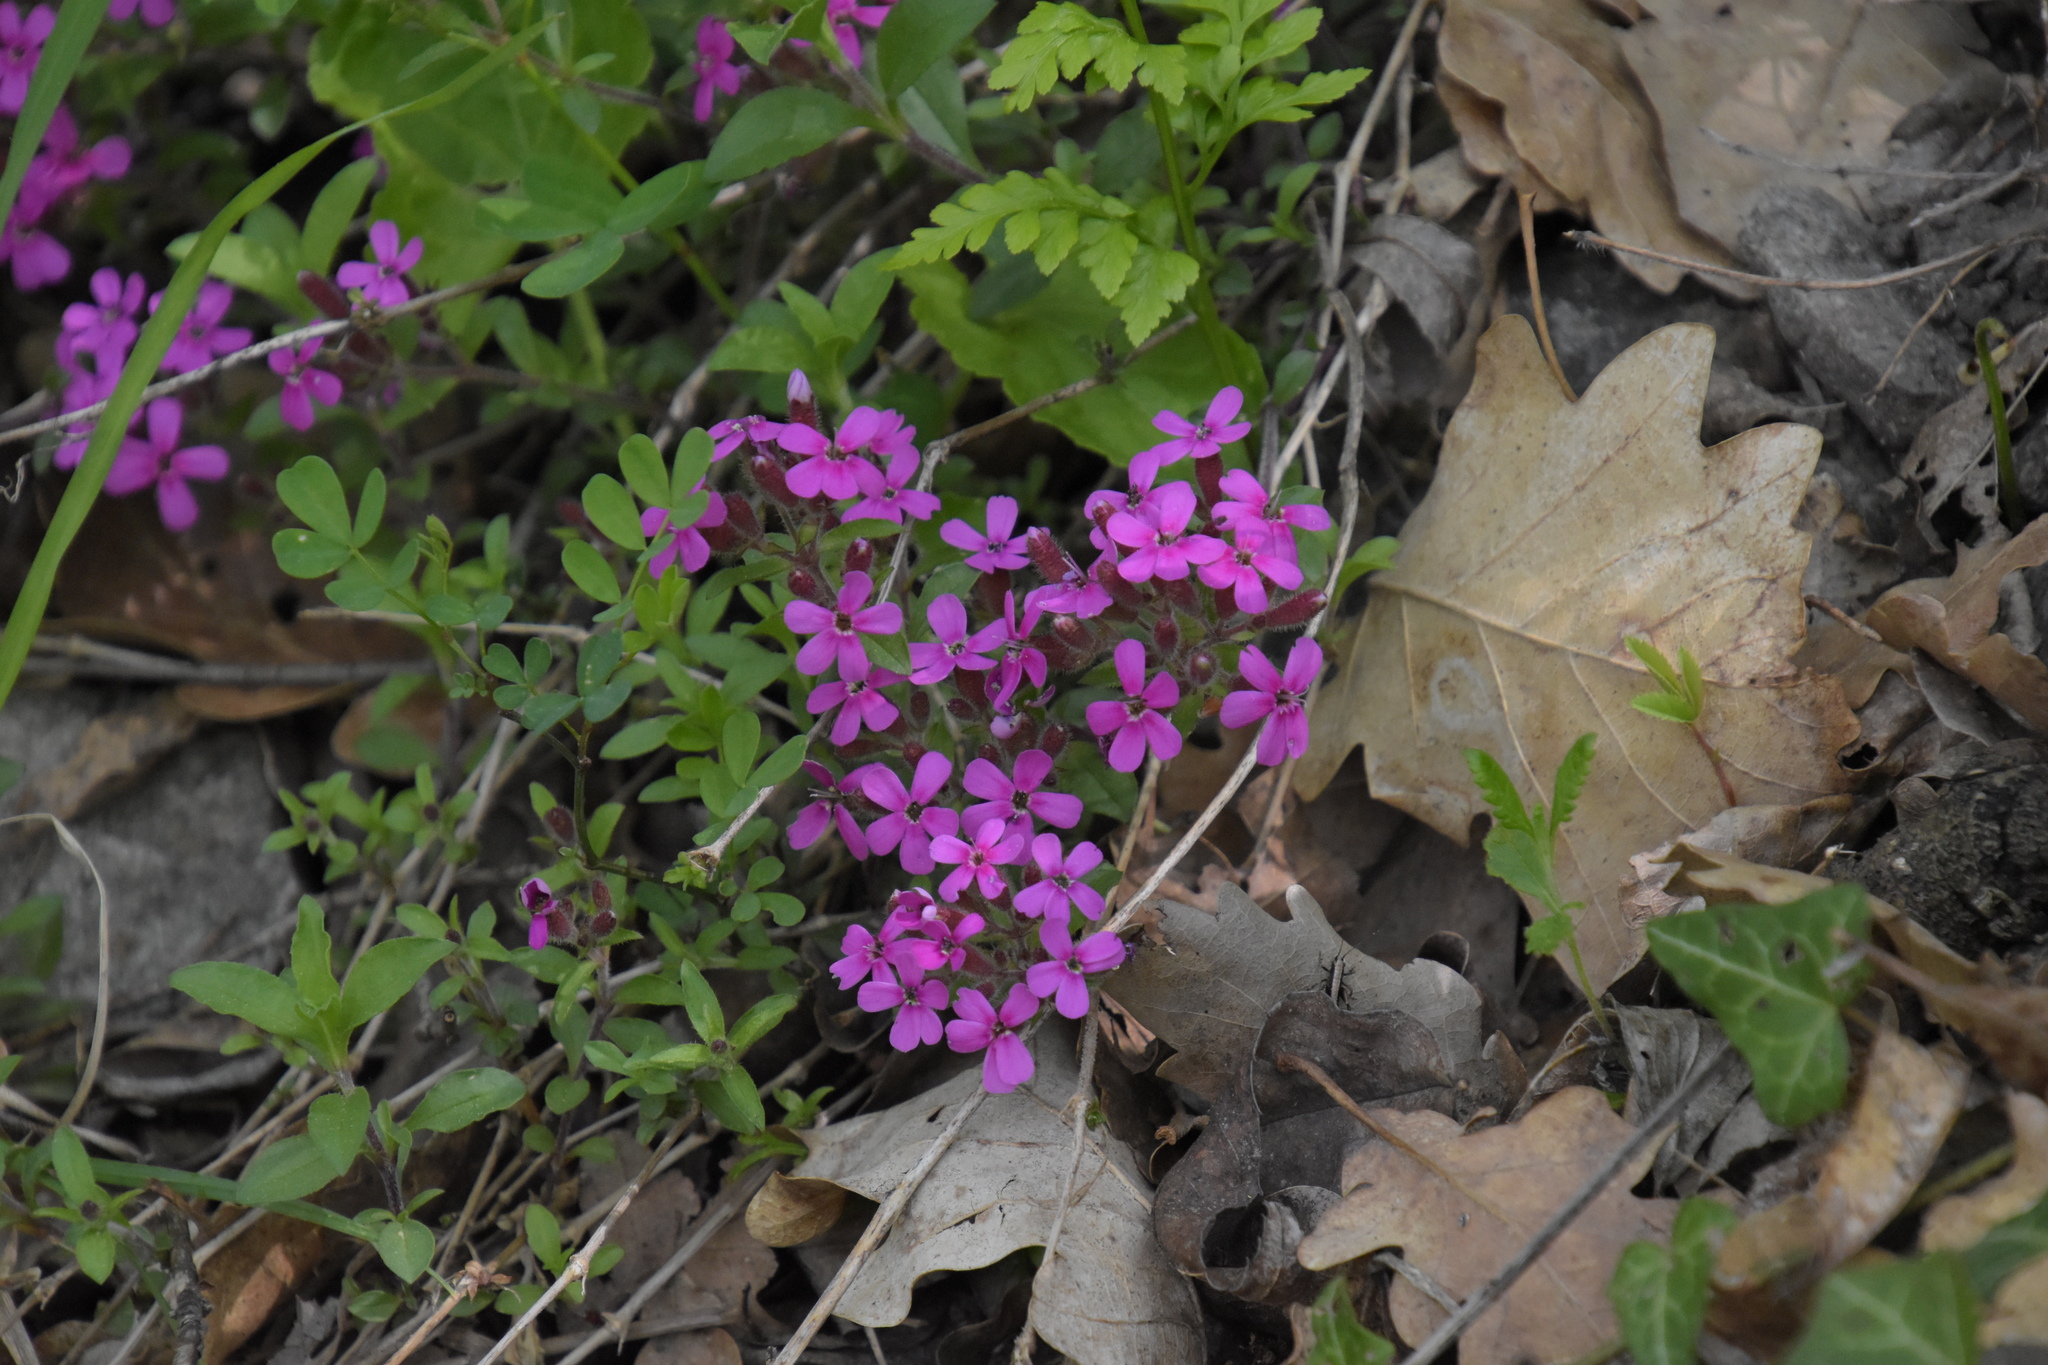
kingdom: Plantae
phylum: Tracheophyta
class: Magnoliopsida
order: Caryophyllales
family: Caryophyllaceae
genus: Saponaria
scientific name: Saponaria ocymoides
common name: Rock soapwort
